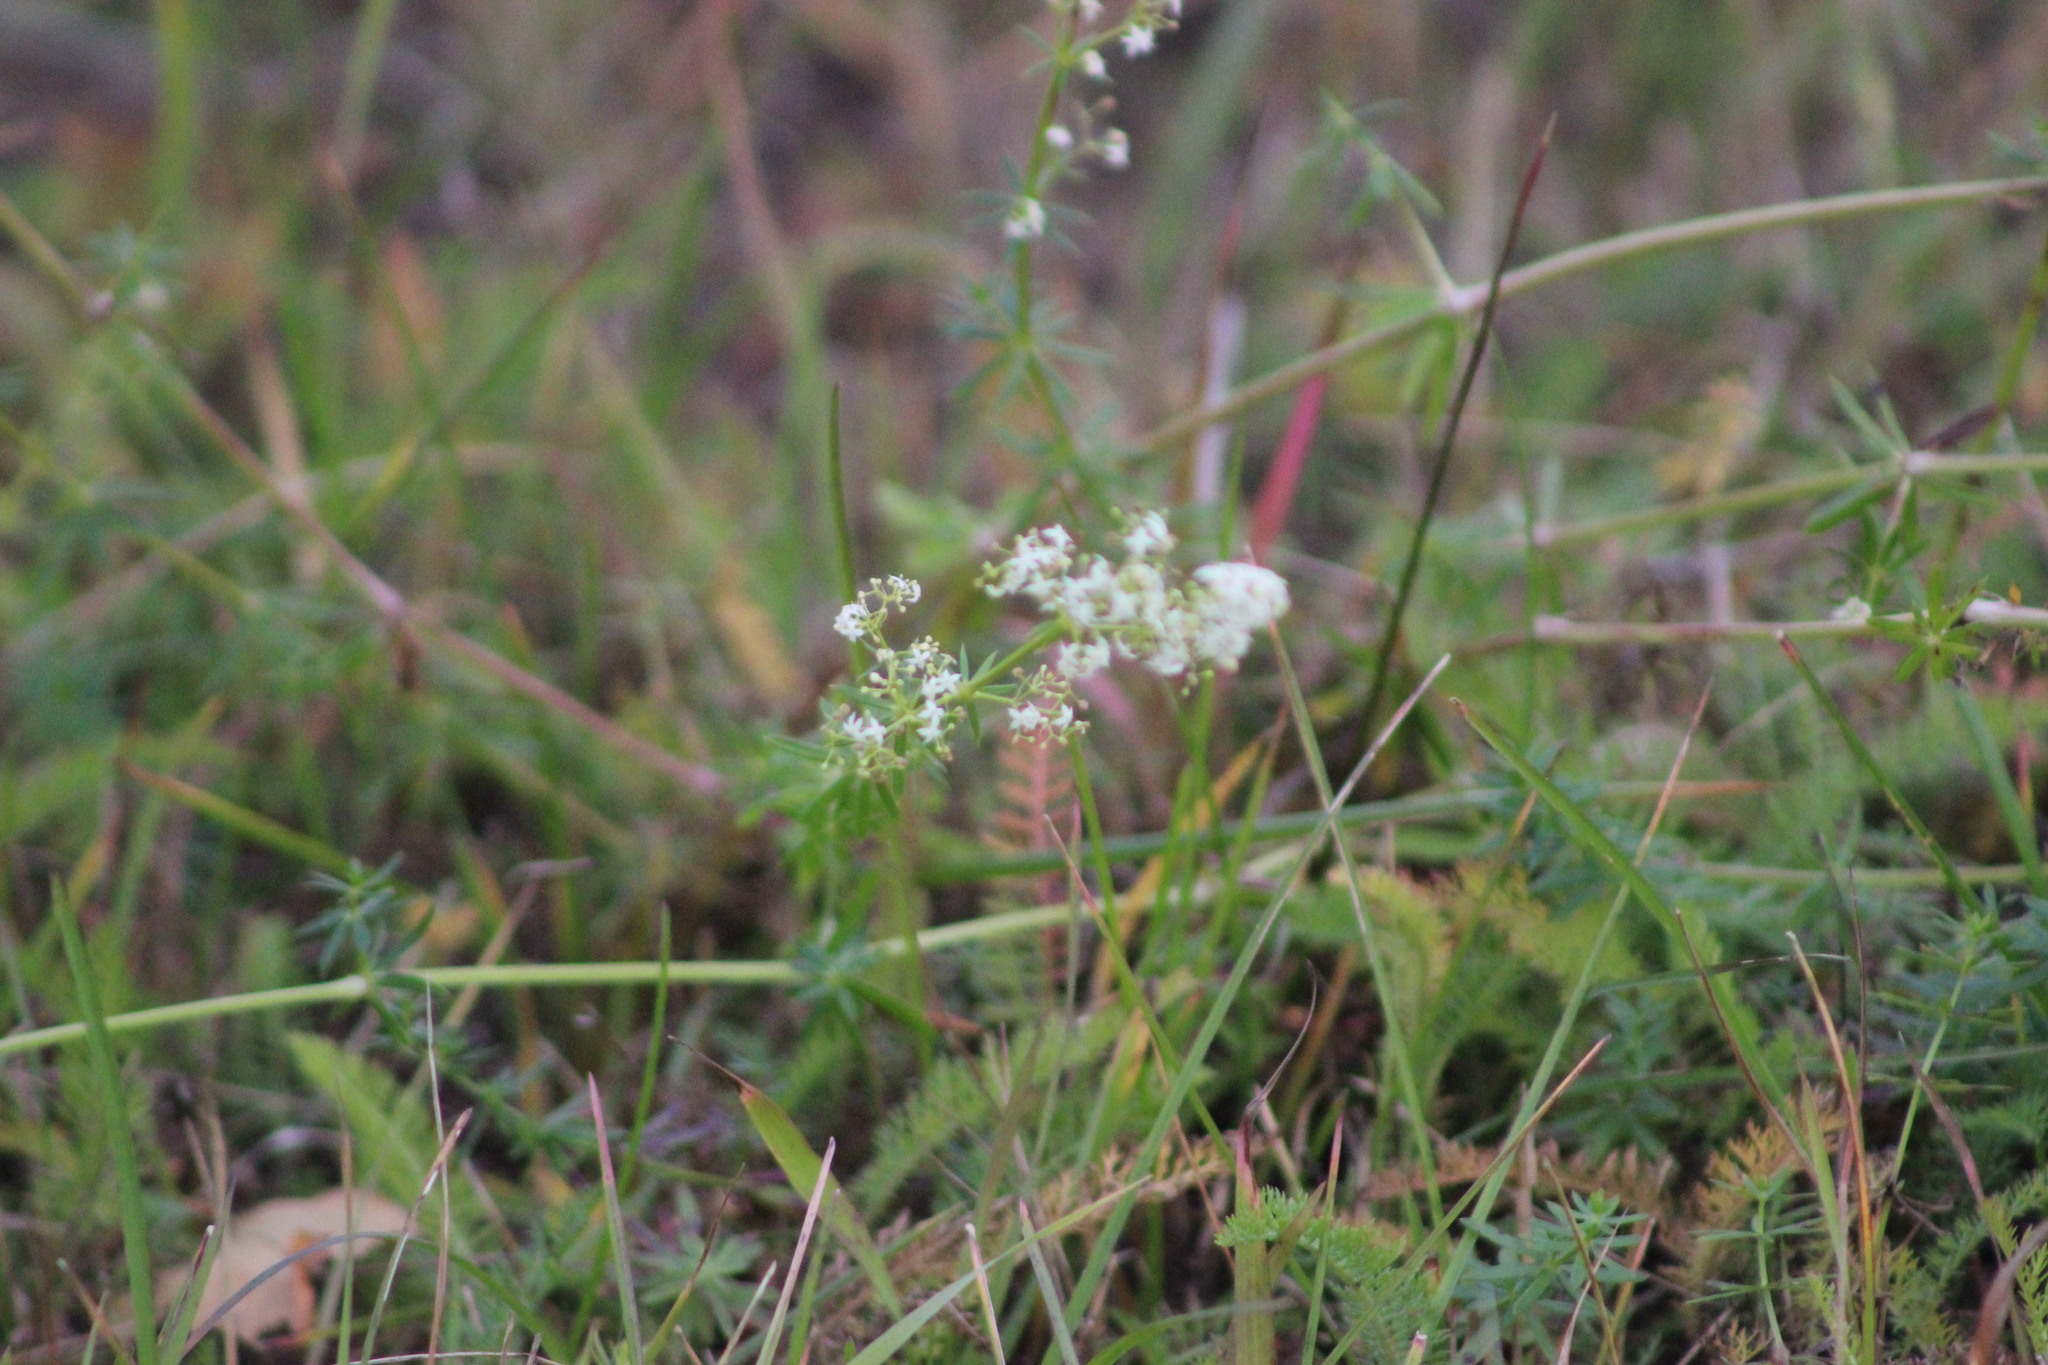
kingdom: Plantae
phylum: Tracheophyta
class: Magnoliopsida
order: Gentianales
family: Rubiaceae
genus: Galium
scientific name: Galium mollugo
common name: Hedge bedstraw
